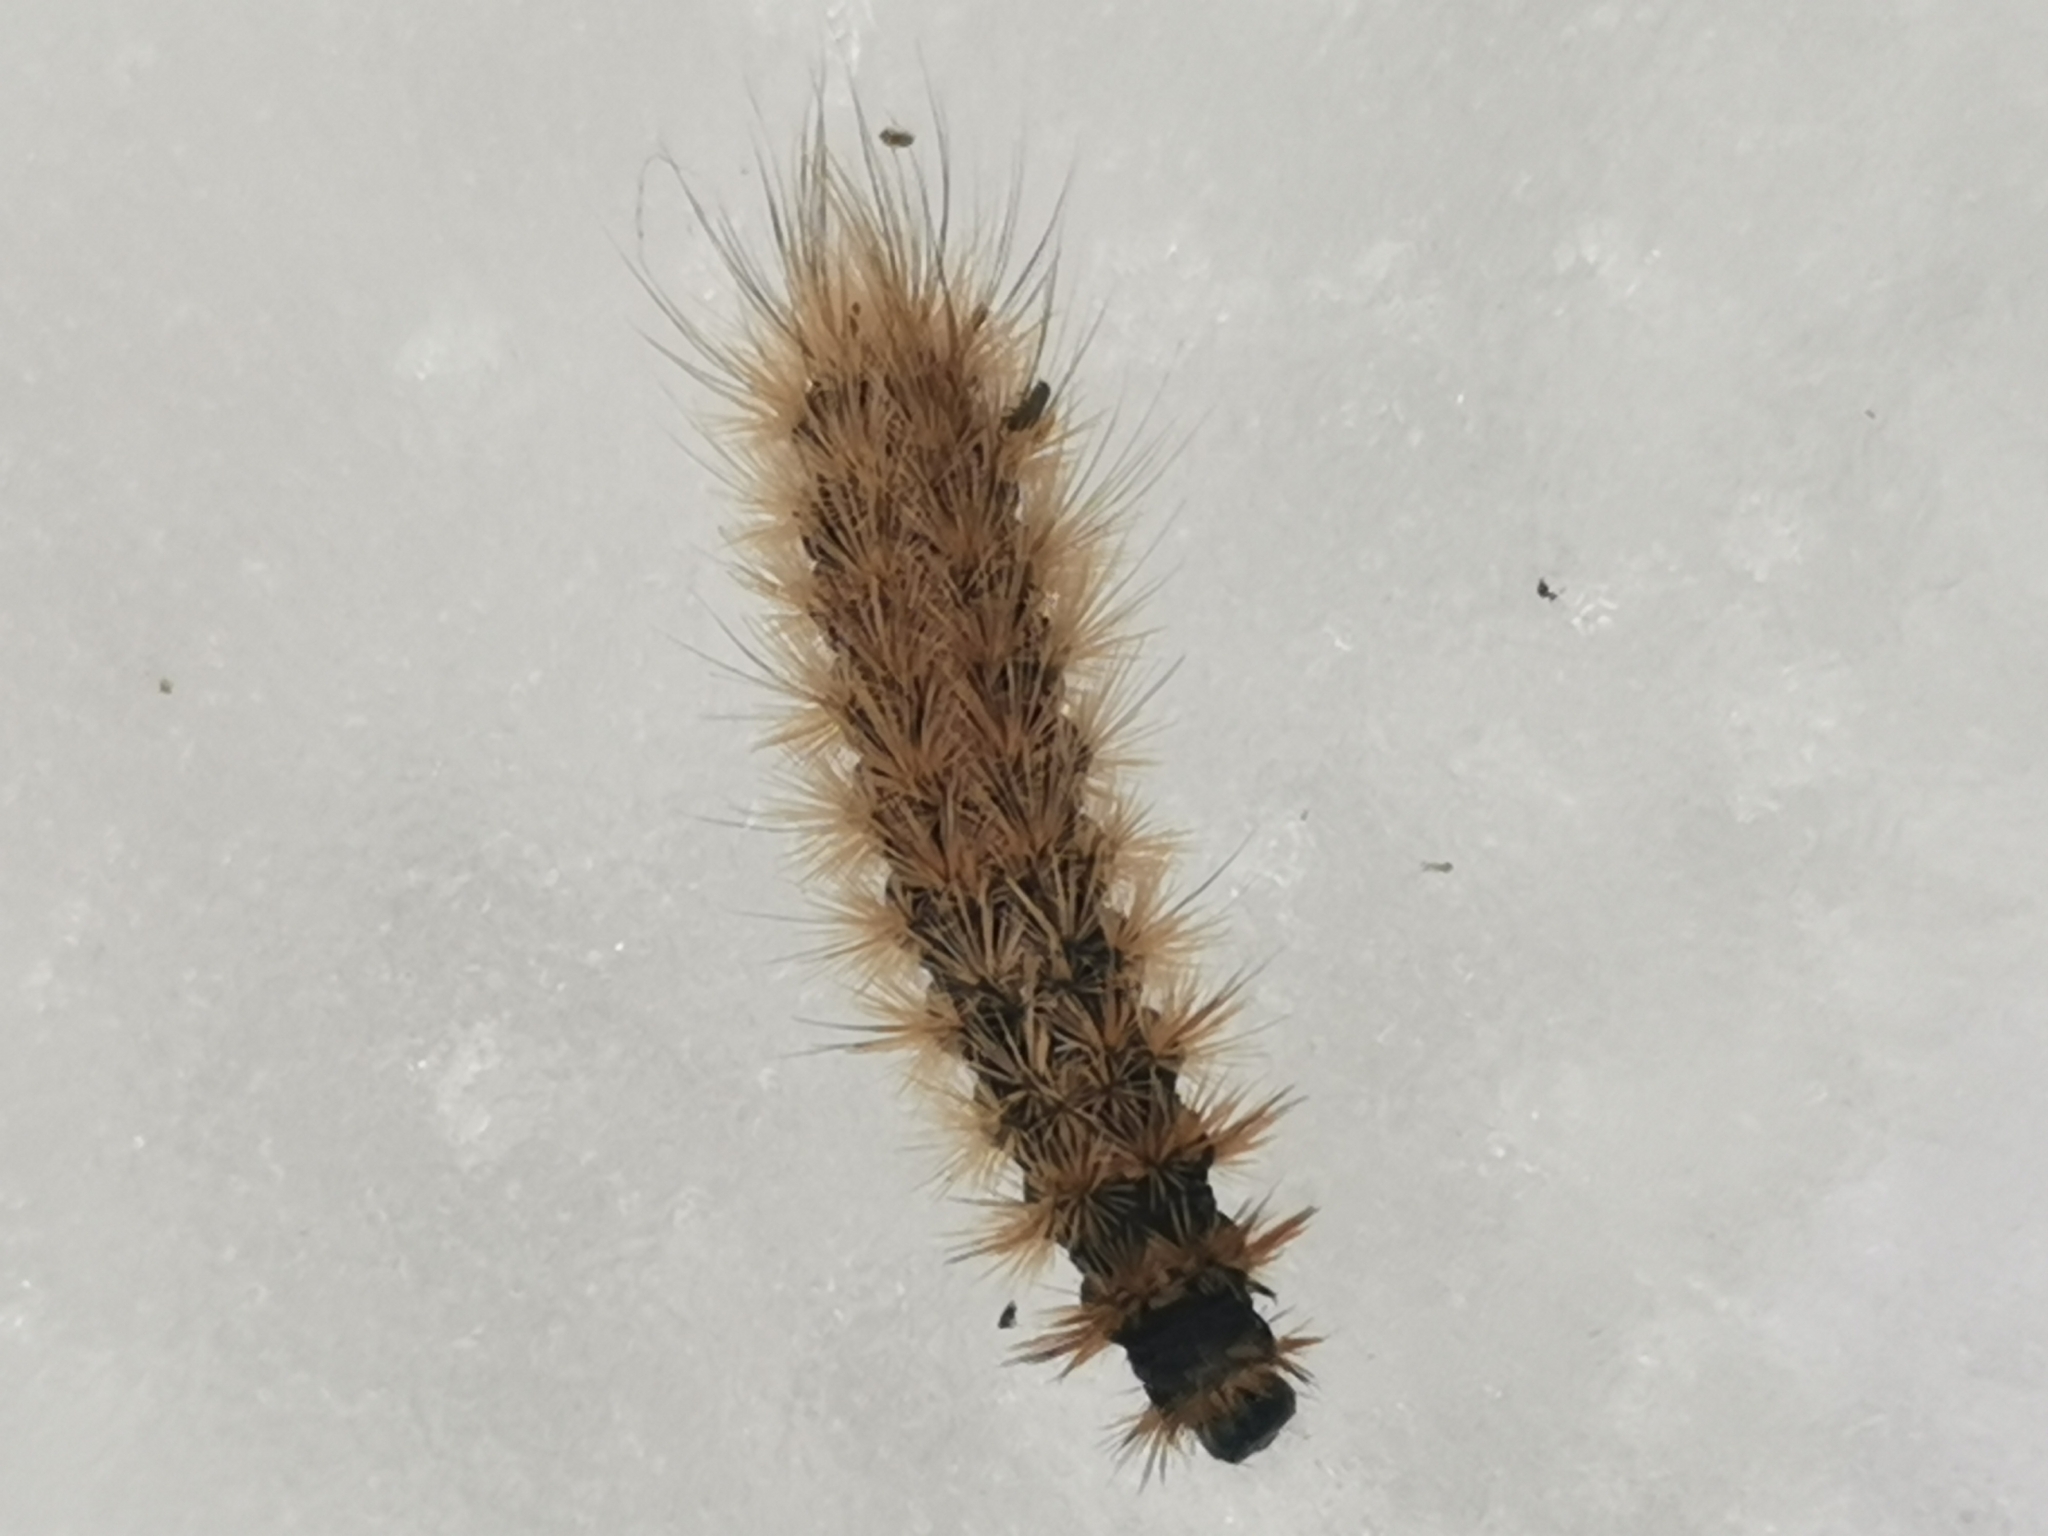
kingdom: Animalia
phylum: Arthropoda
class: Insecta
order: Lepidoptera
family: Erebidae
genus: Phragmatobia
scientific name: Phragmatobia fuliginosa
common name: Ruby tiger
